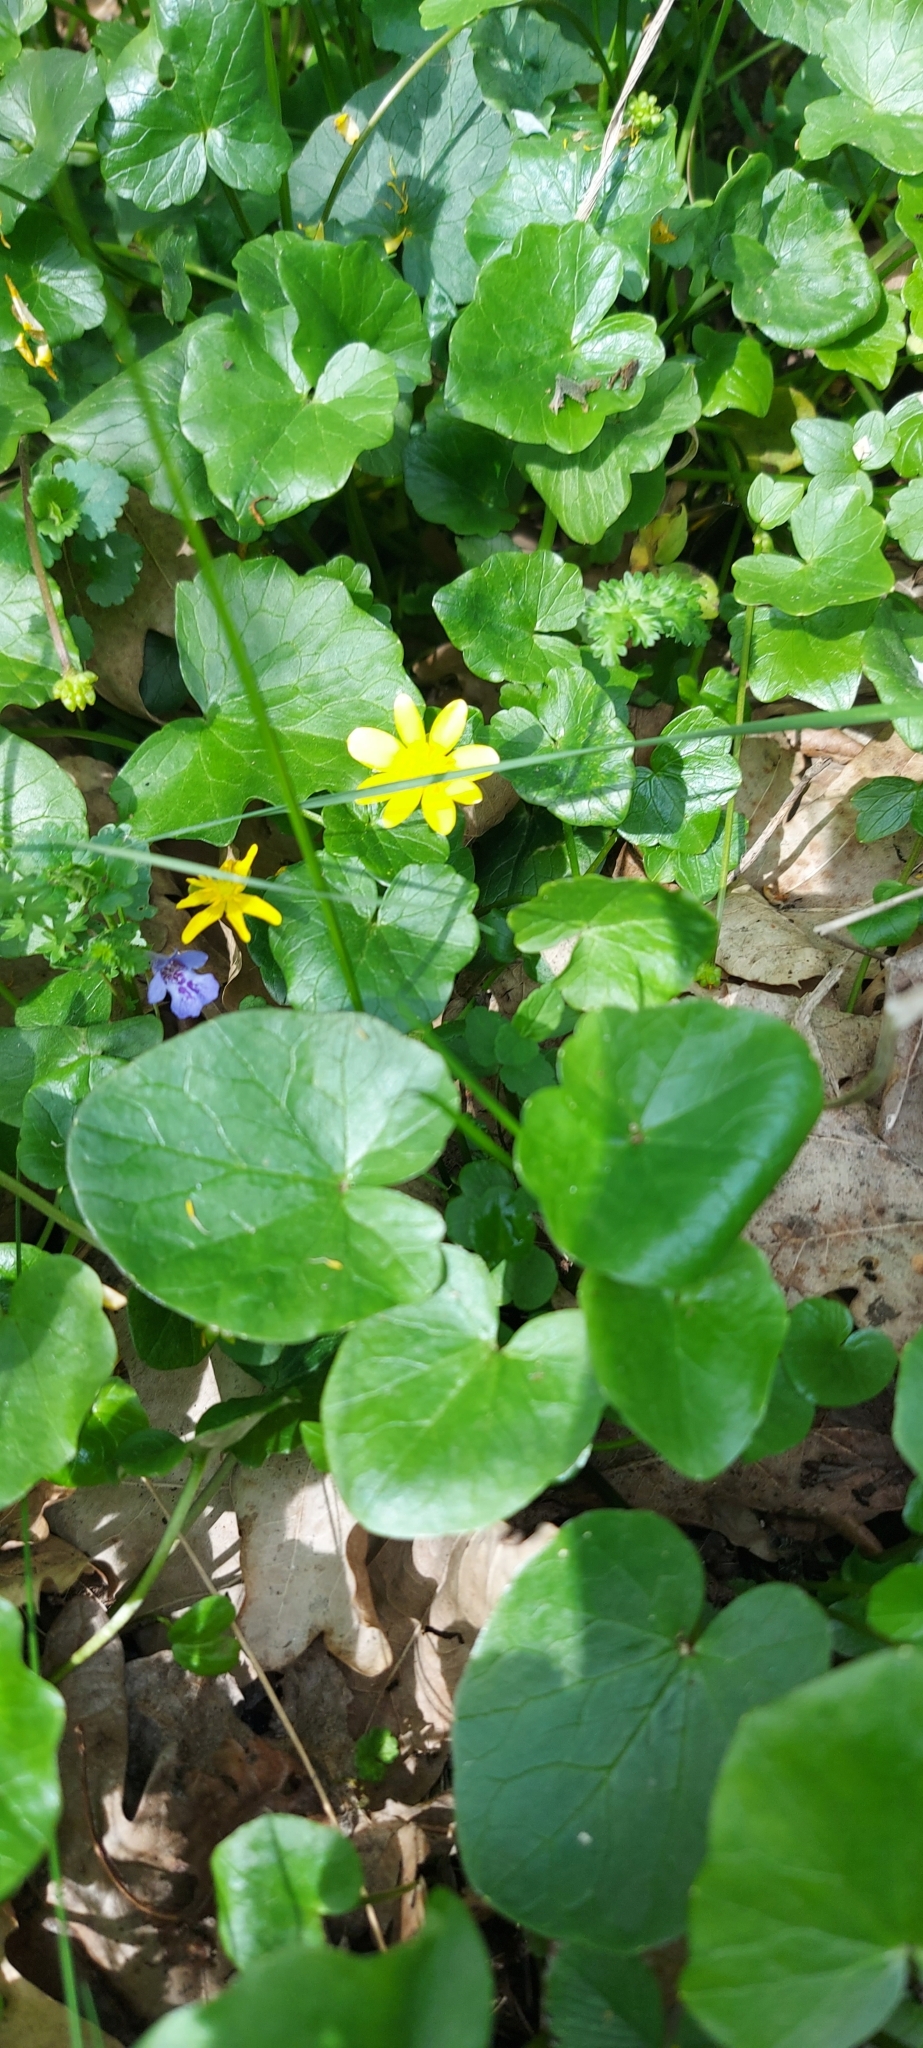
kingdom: Plantae
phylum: Tracheophyta
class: Magnoliopsida
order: Ranunculales
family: Ranunculaceae
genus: Ficaria
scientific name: Ficaria verna
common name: Lesser celandine
